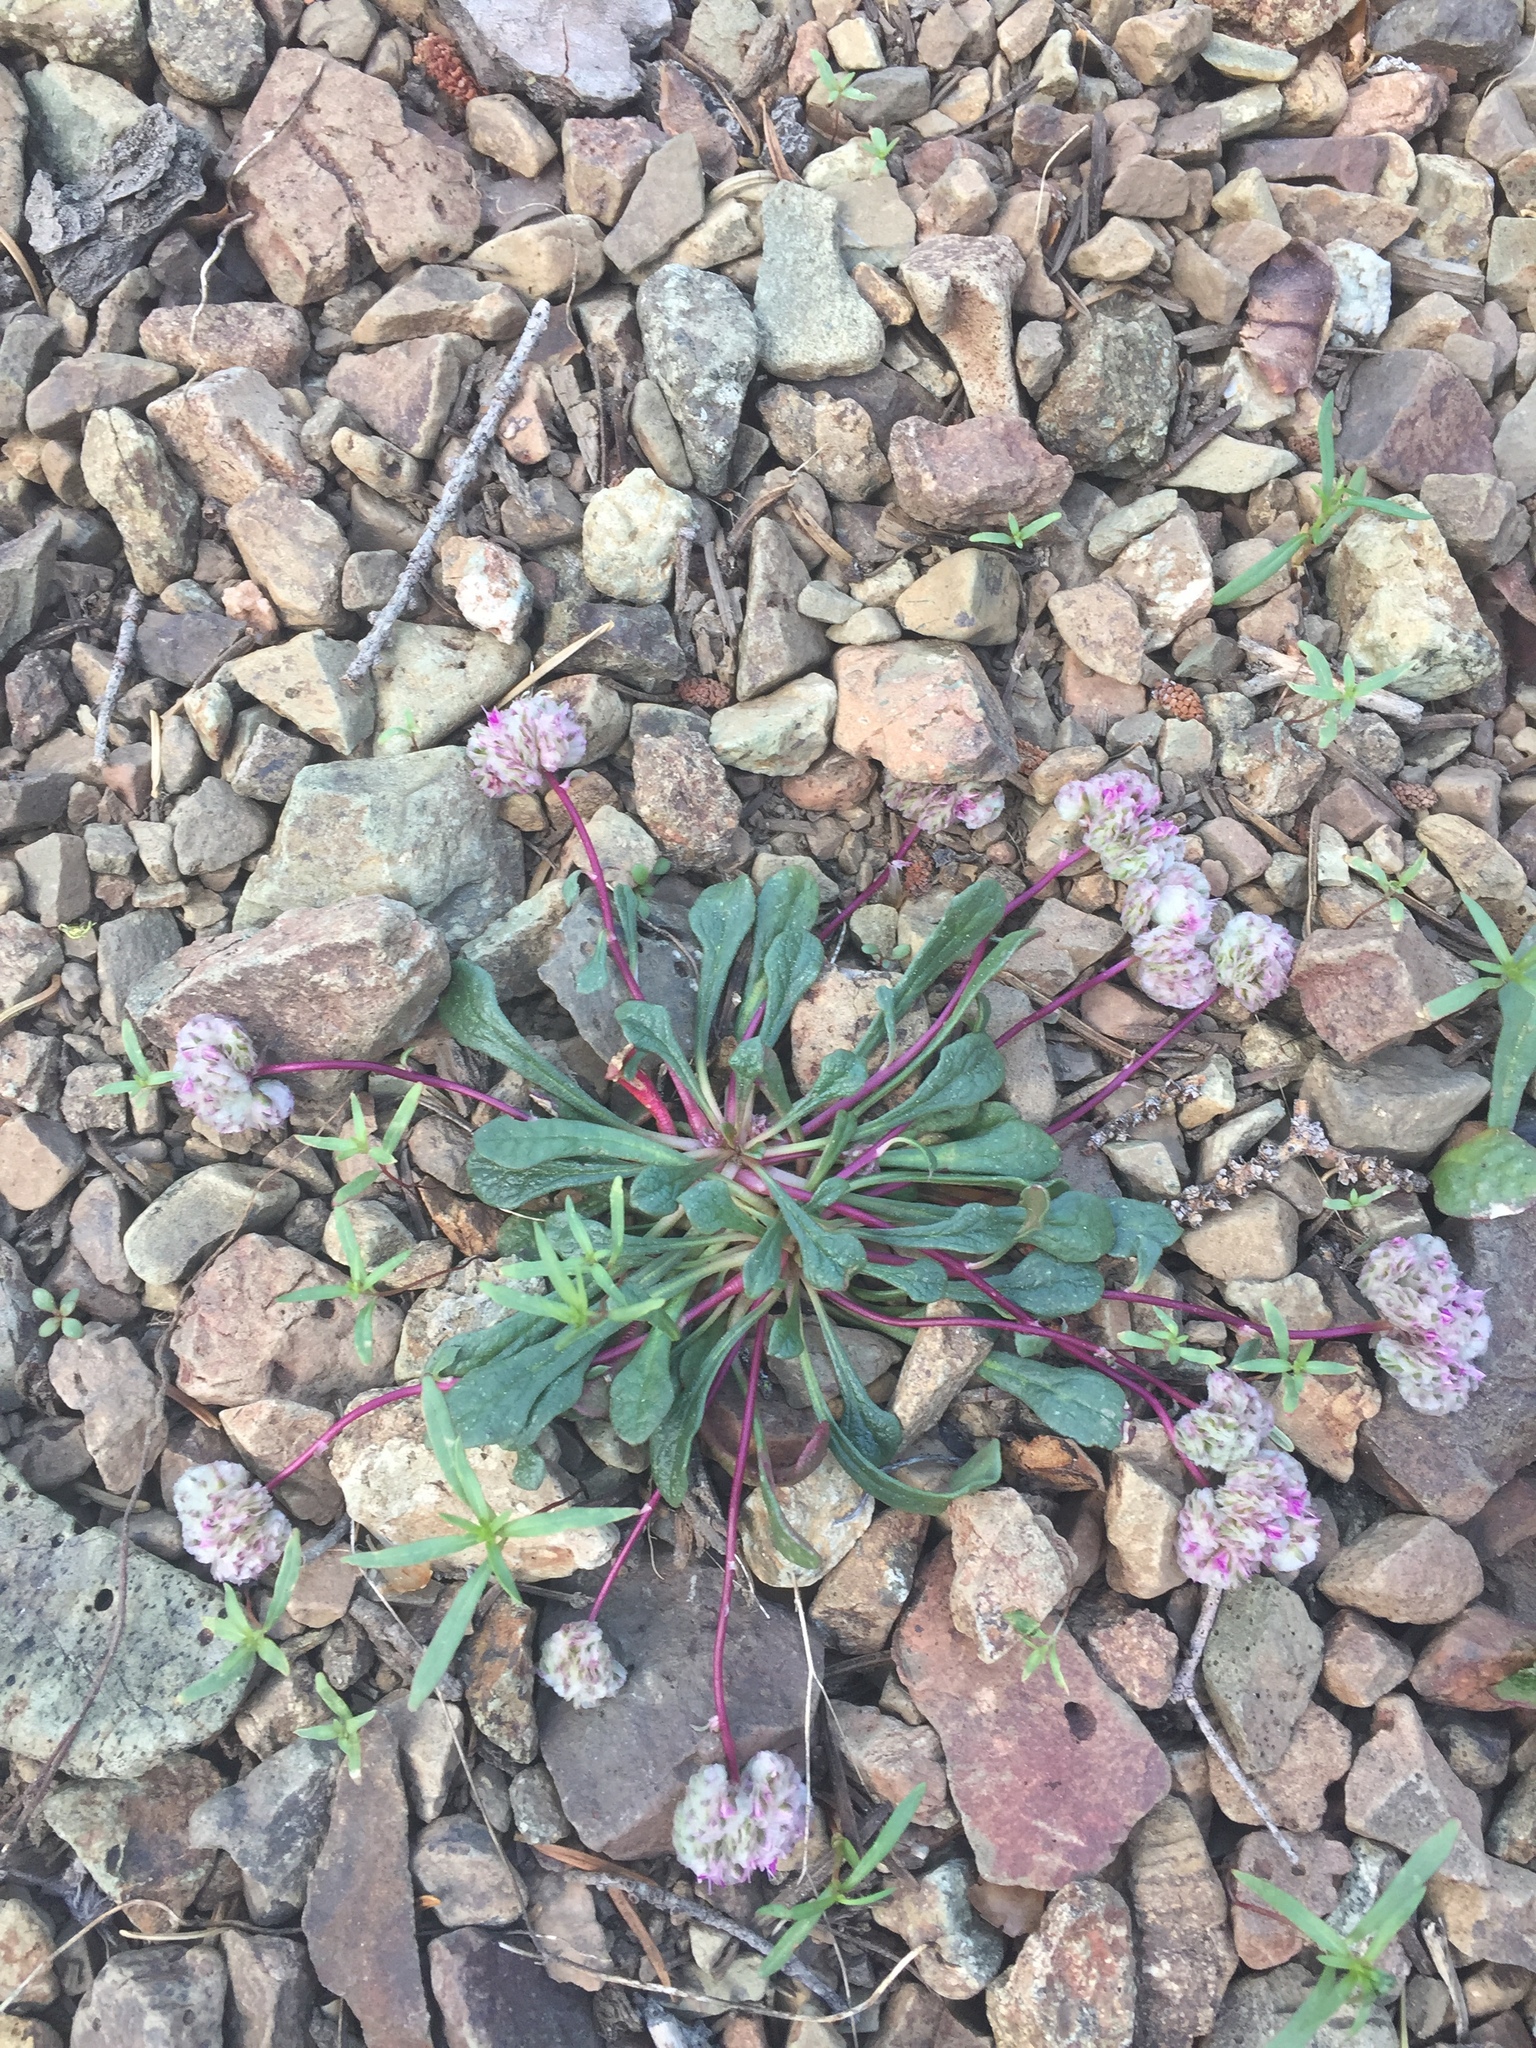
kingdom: Plantae
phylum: Tracheophyta
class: Magnoliopsida
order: Caryophyllales
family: Montiaceae
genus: Calyptridium
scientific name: Calyptridium monospermum
